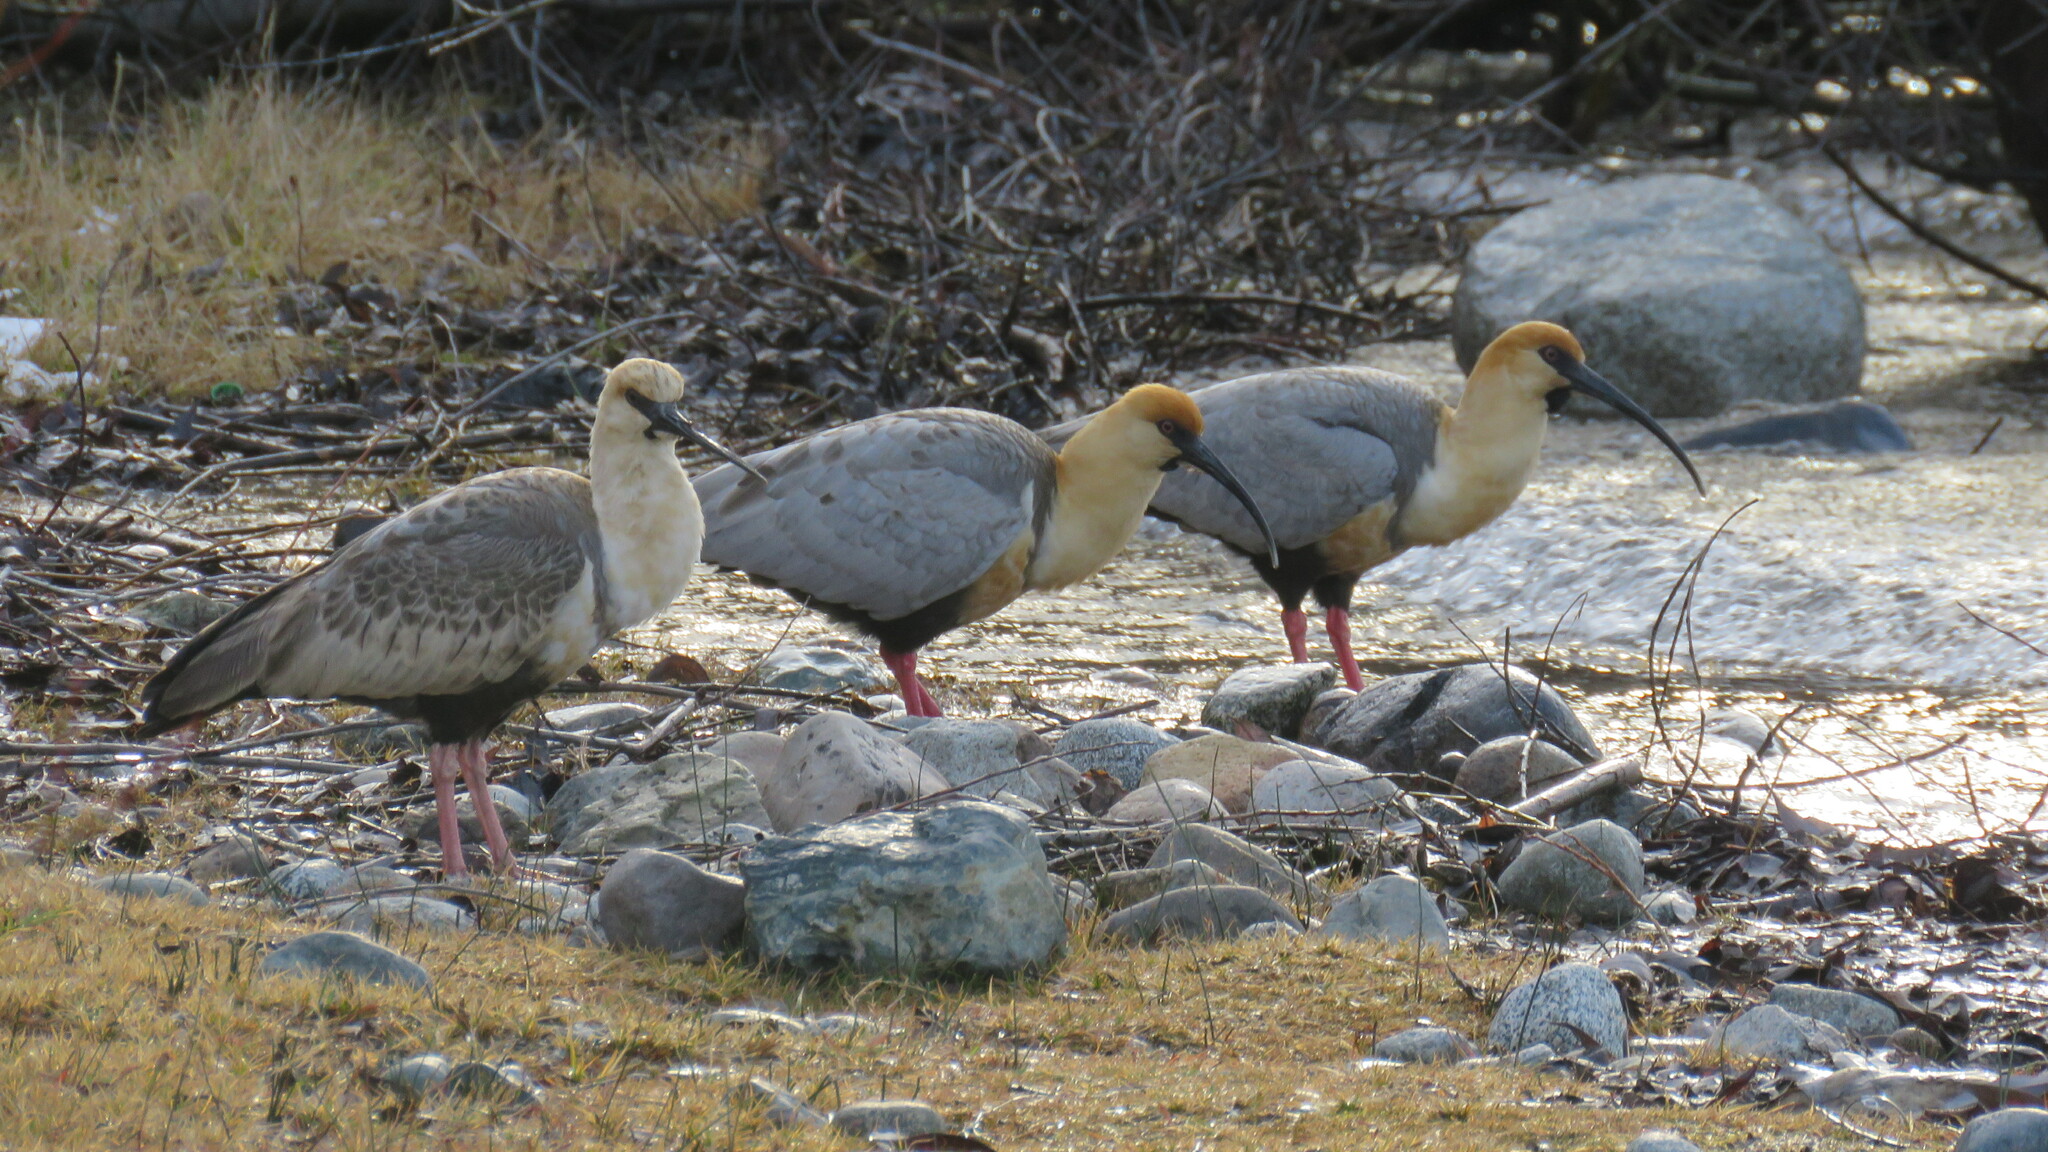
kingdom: Animalia
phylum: Chordata
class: Aves
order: Pelecaniformes
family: Threskiornithidae
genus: Theristicus
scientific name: Theristicus melanopis
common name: Black-faced ibis
